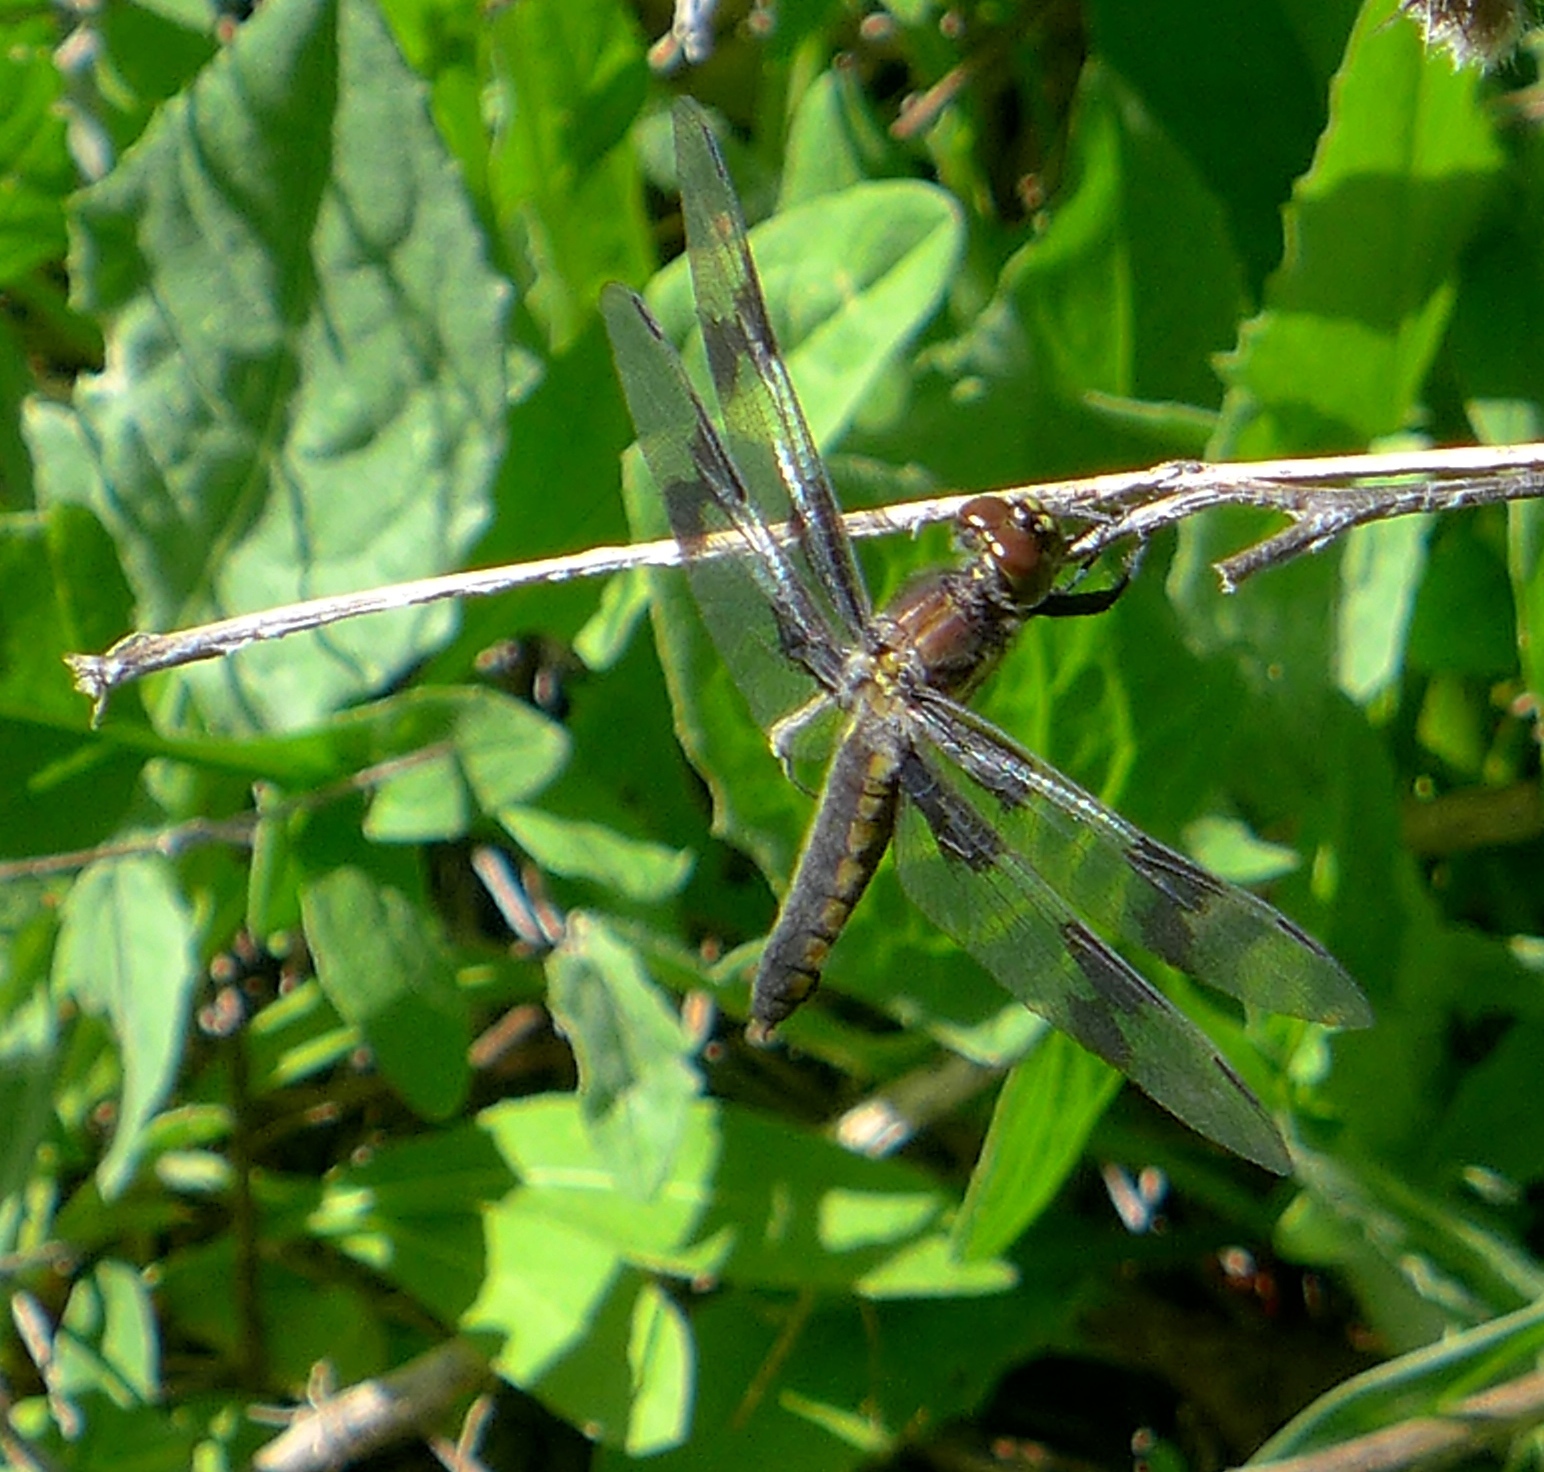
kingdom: Animalia
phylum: Arthropoda
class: Insecta
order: Odonata
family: Libellulidae
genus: Libellula
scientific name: Libellula forensis
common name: Eight-spotted skimmer
